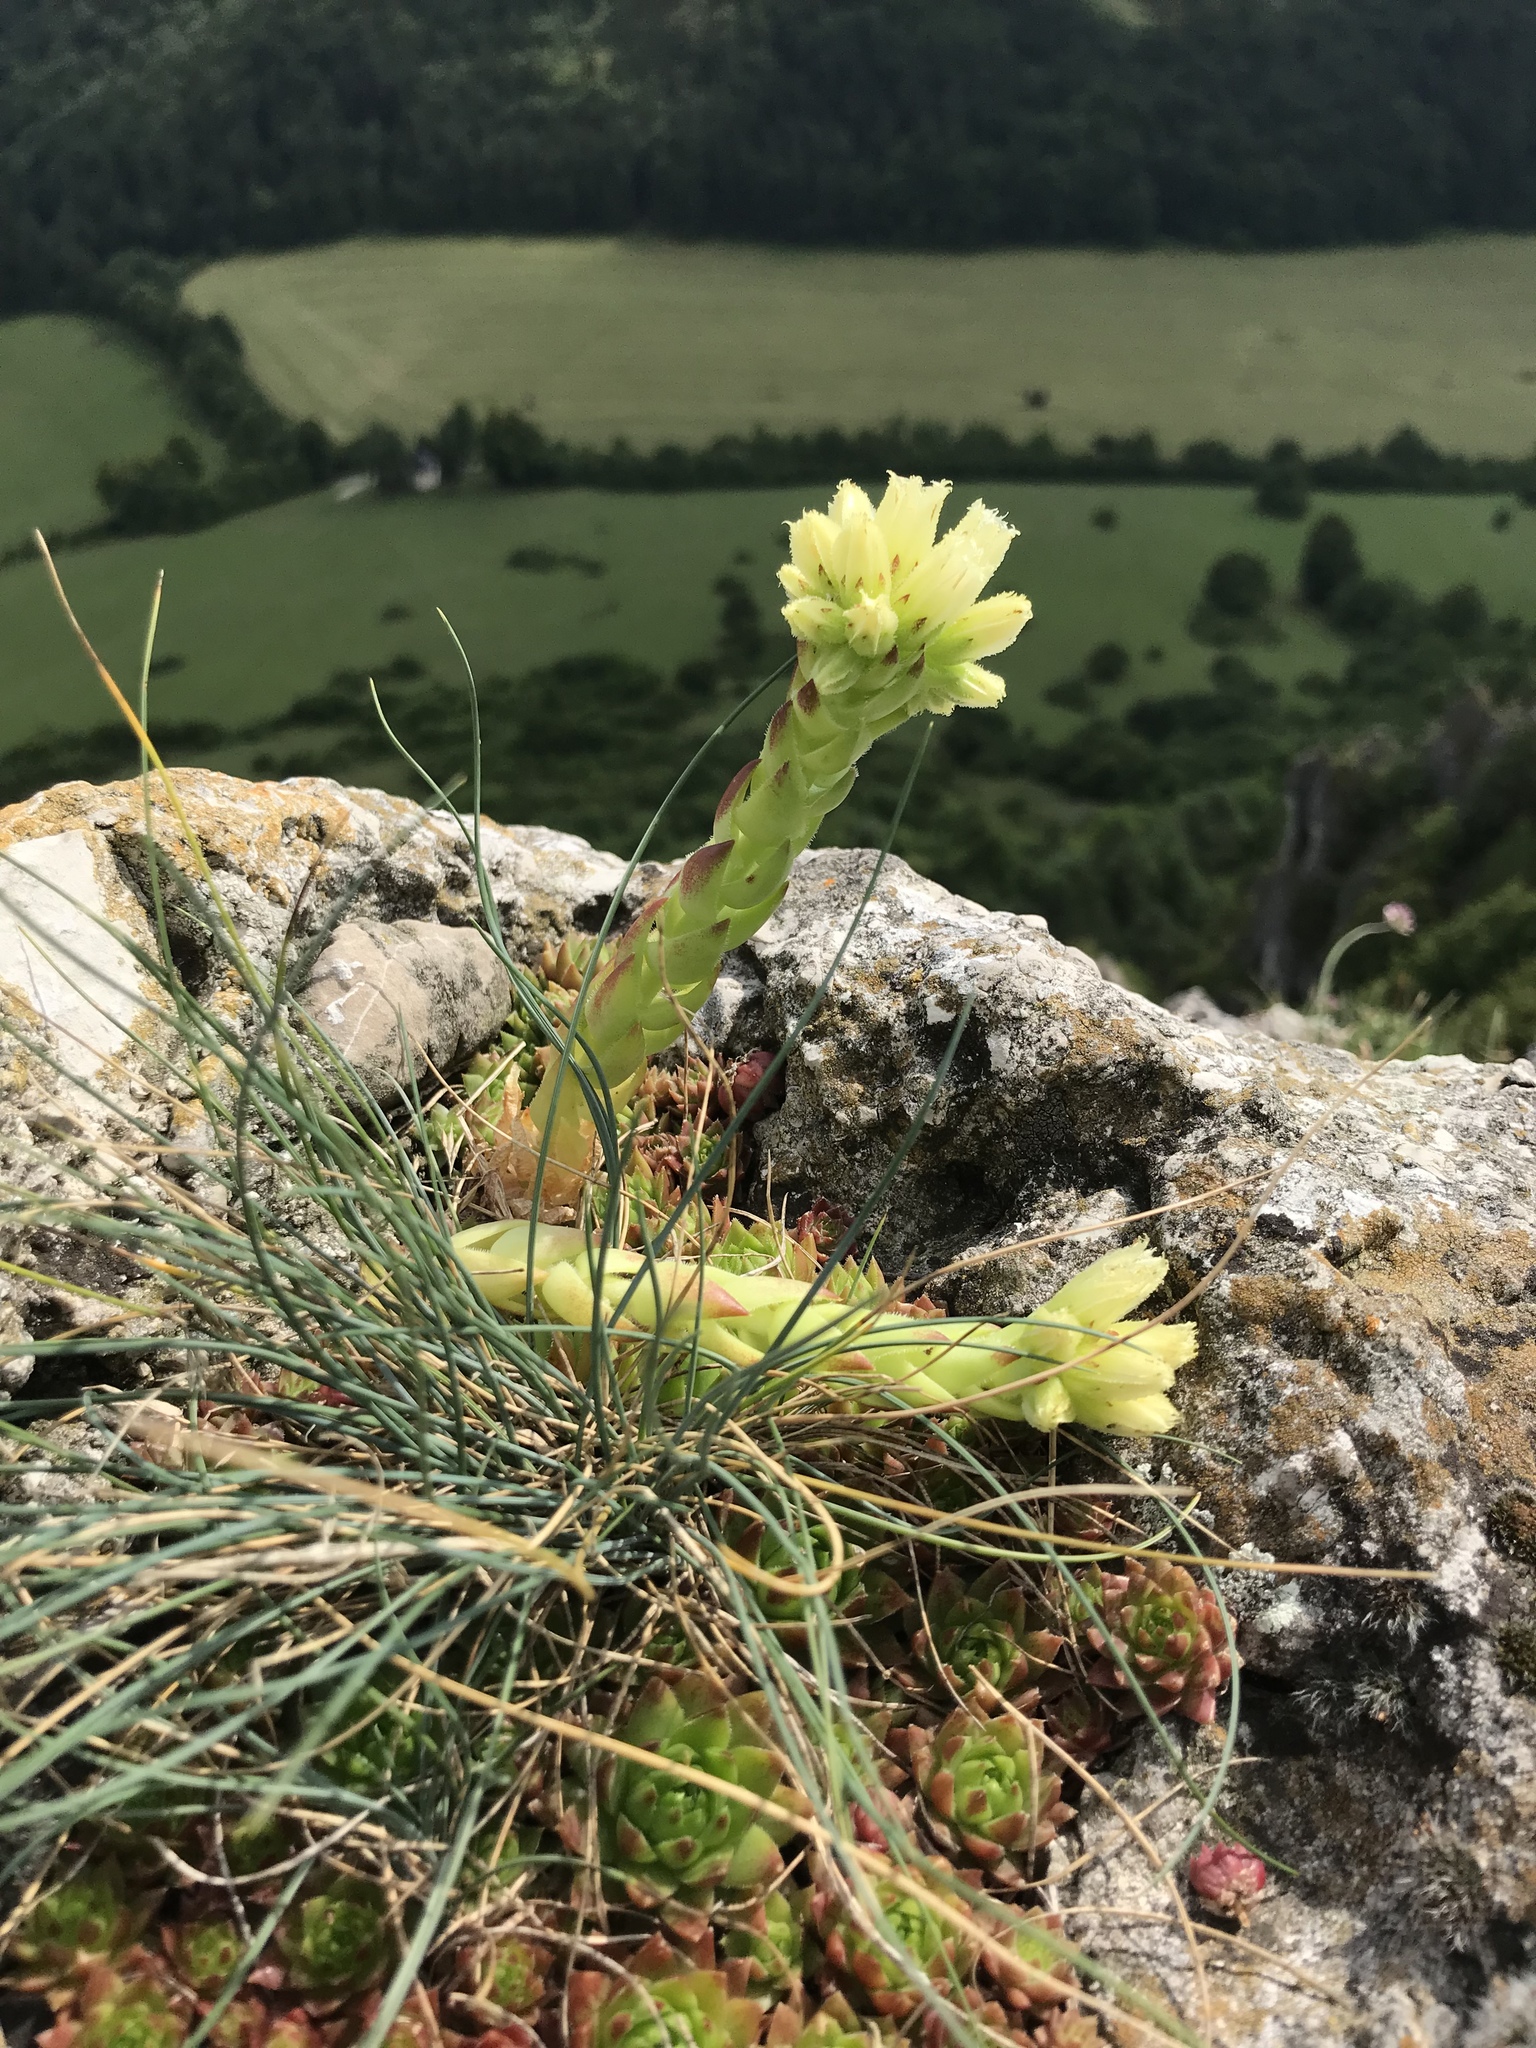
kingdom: Plantae
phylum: Tracheophyta
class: Magnoliopsida
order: Saxifragales
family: Crassulaceae
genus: Sempervivum
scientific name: Sempervivum globiferum
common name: Rolling hen-and-chicks
